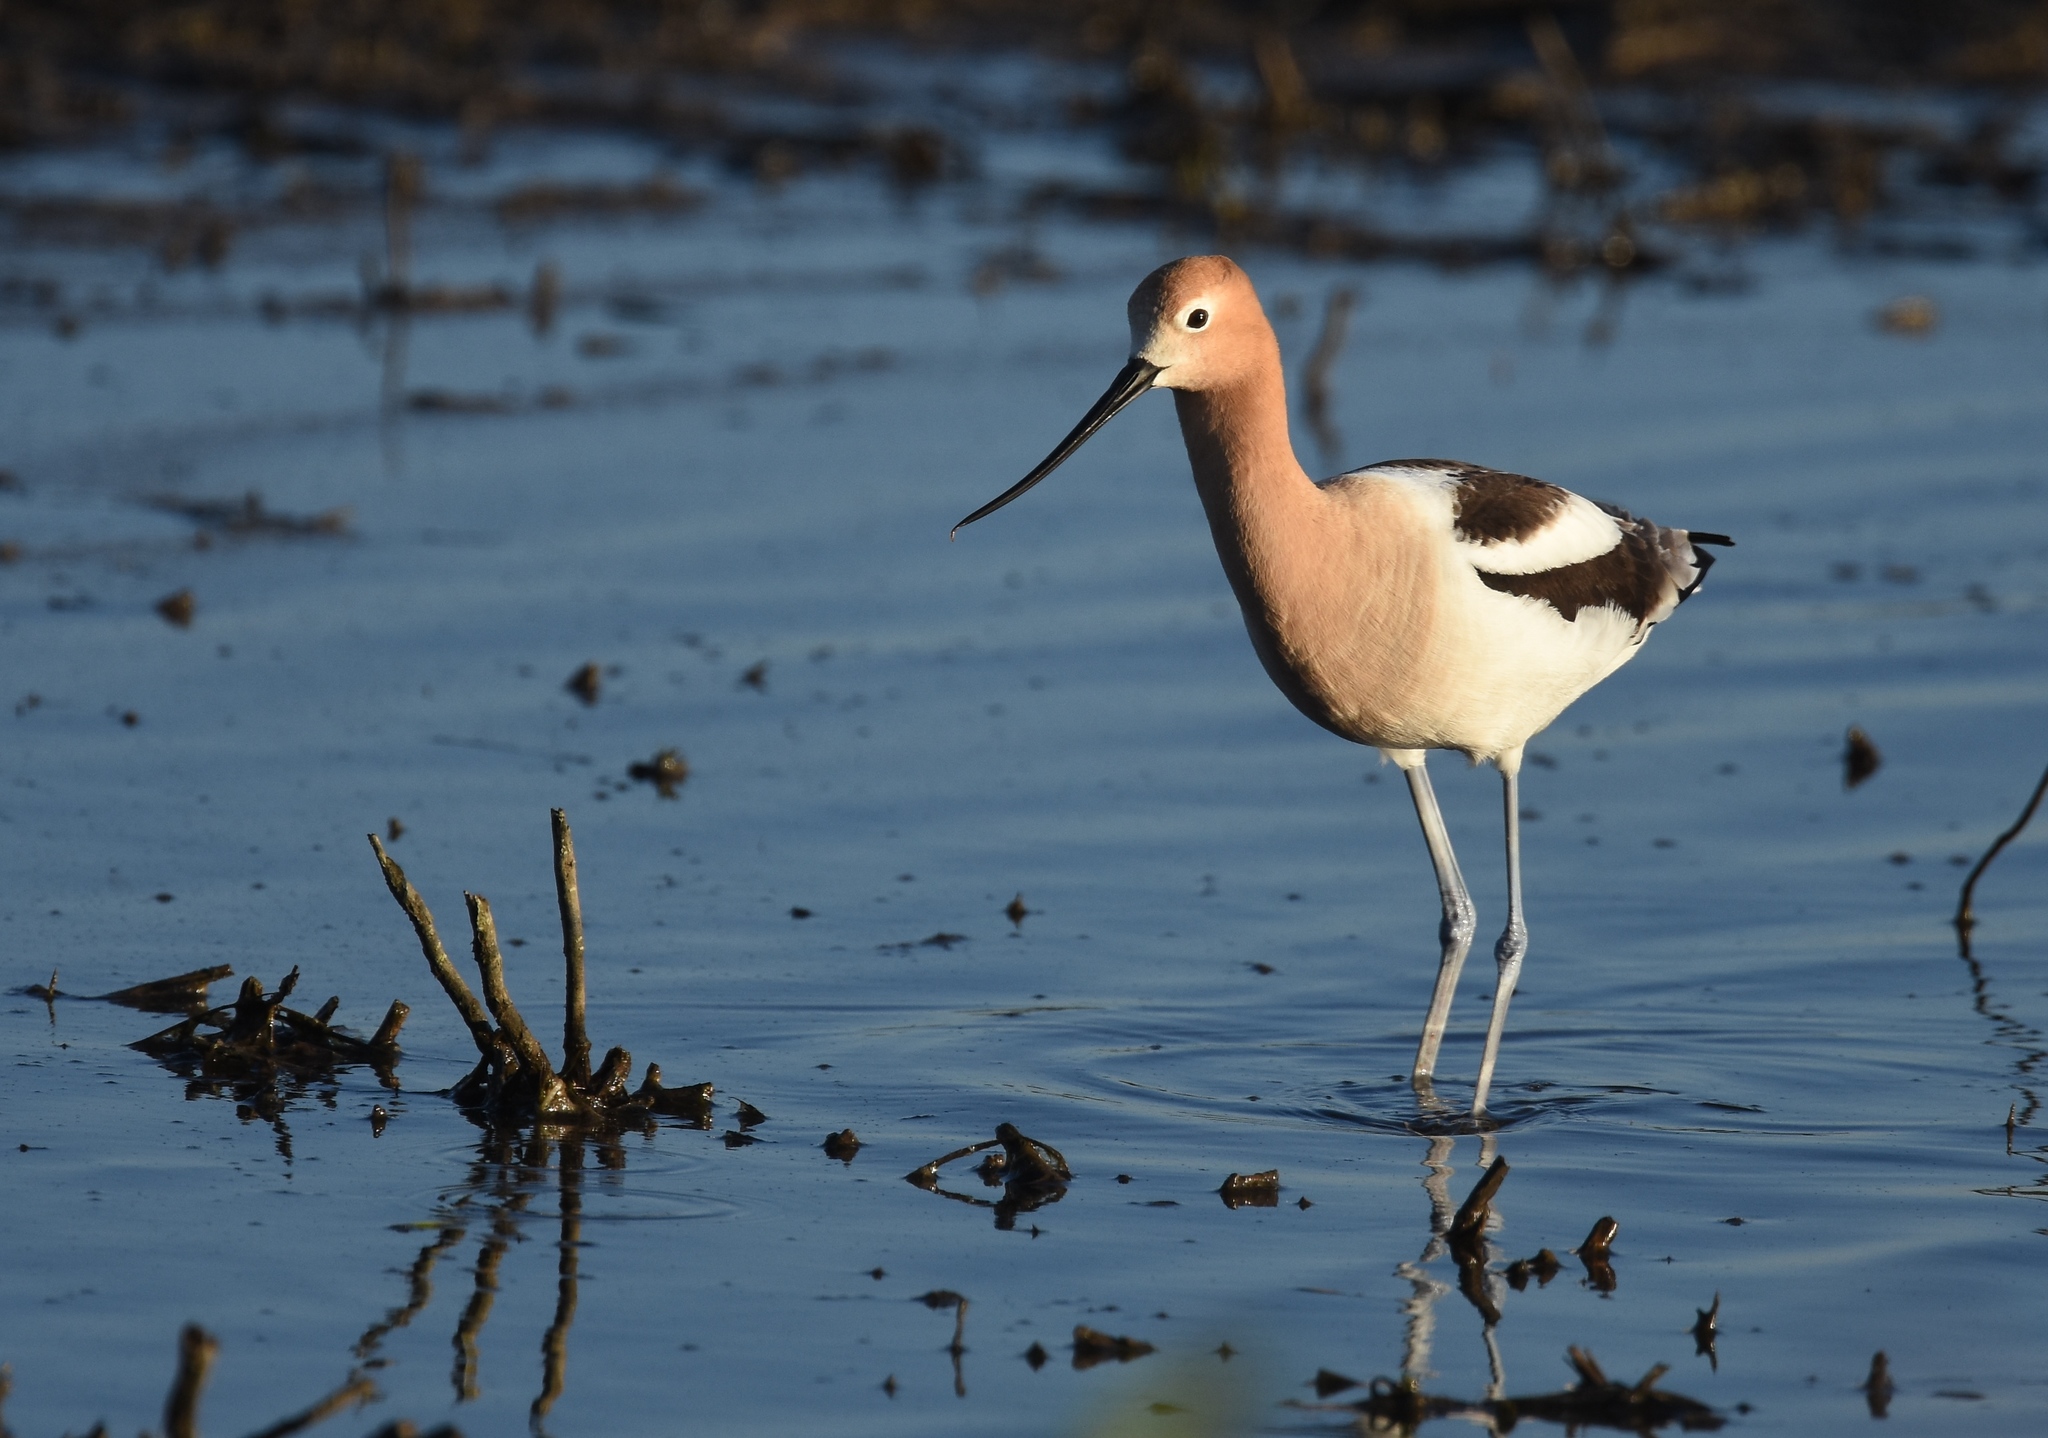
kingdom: Animalia
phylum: Chordata
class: Aves
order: Charadriiformes
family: Recurvirostridae
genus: Recurvirostra
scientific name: Recurvirostra americana
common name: American avocet
